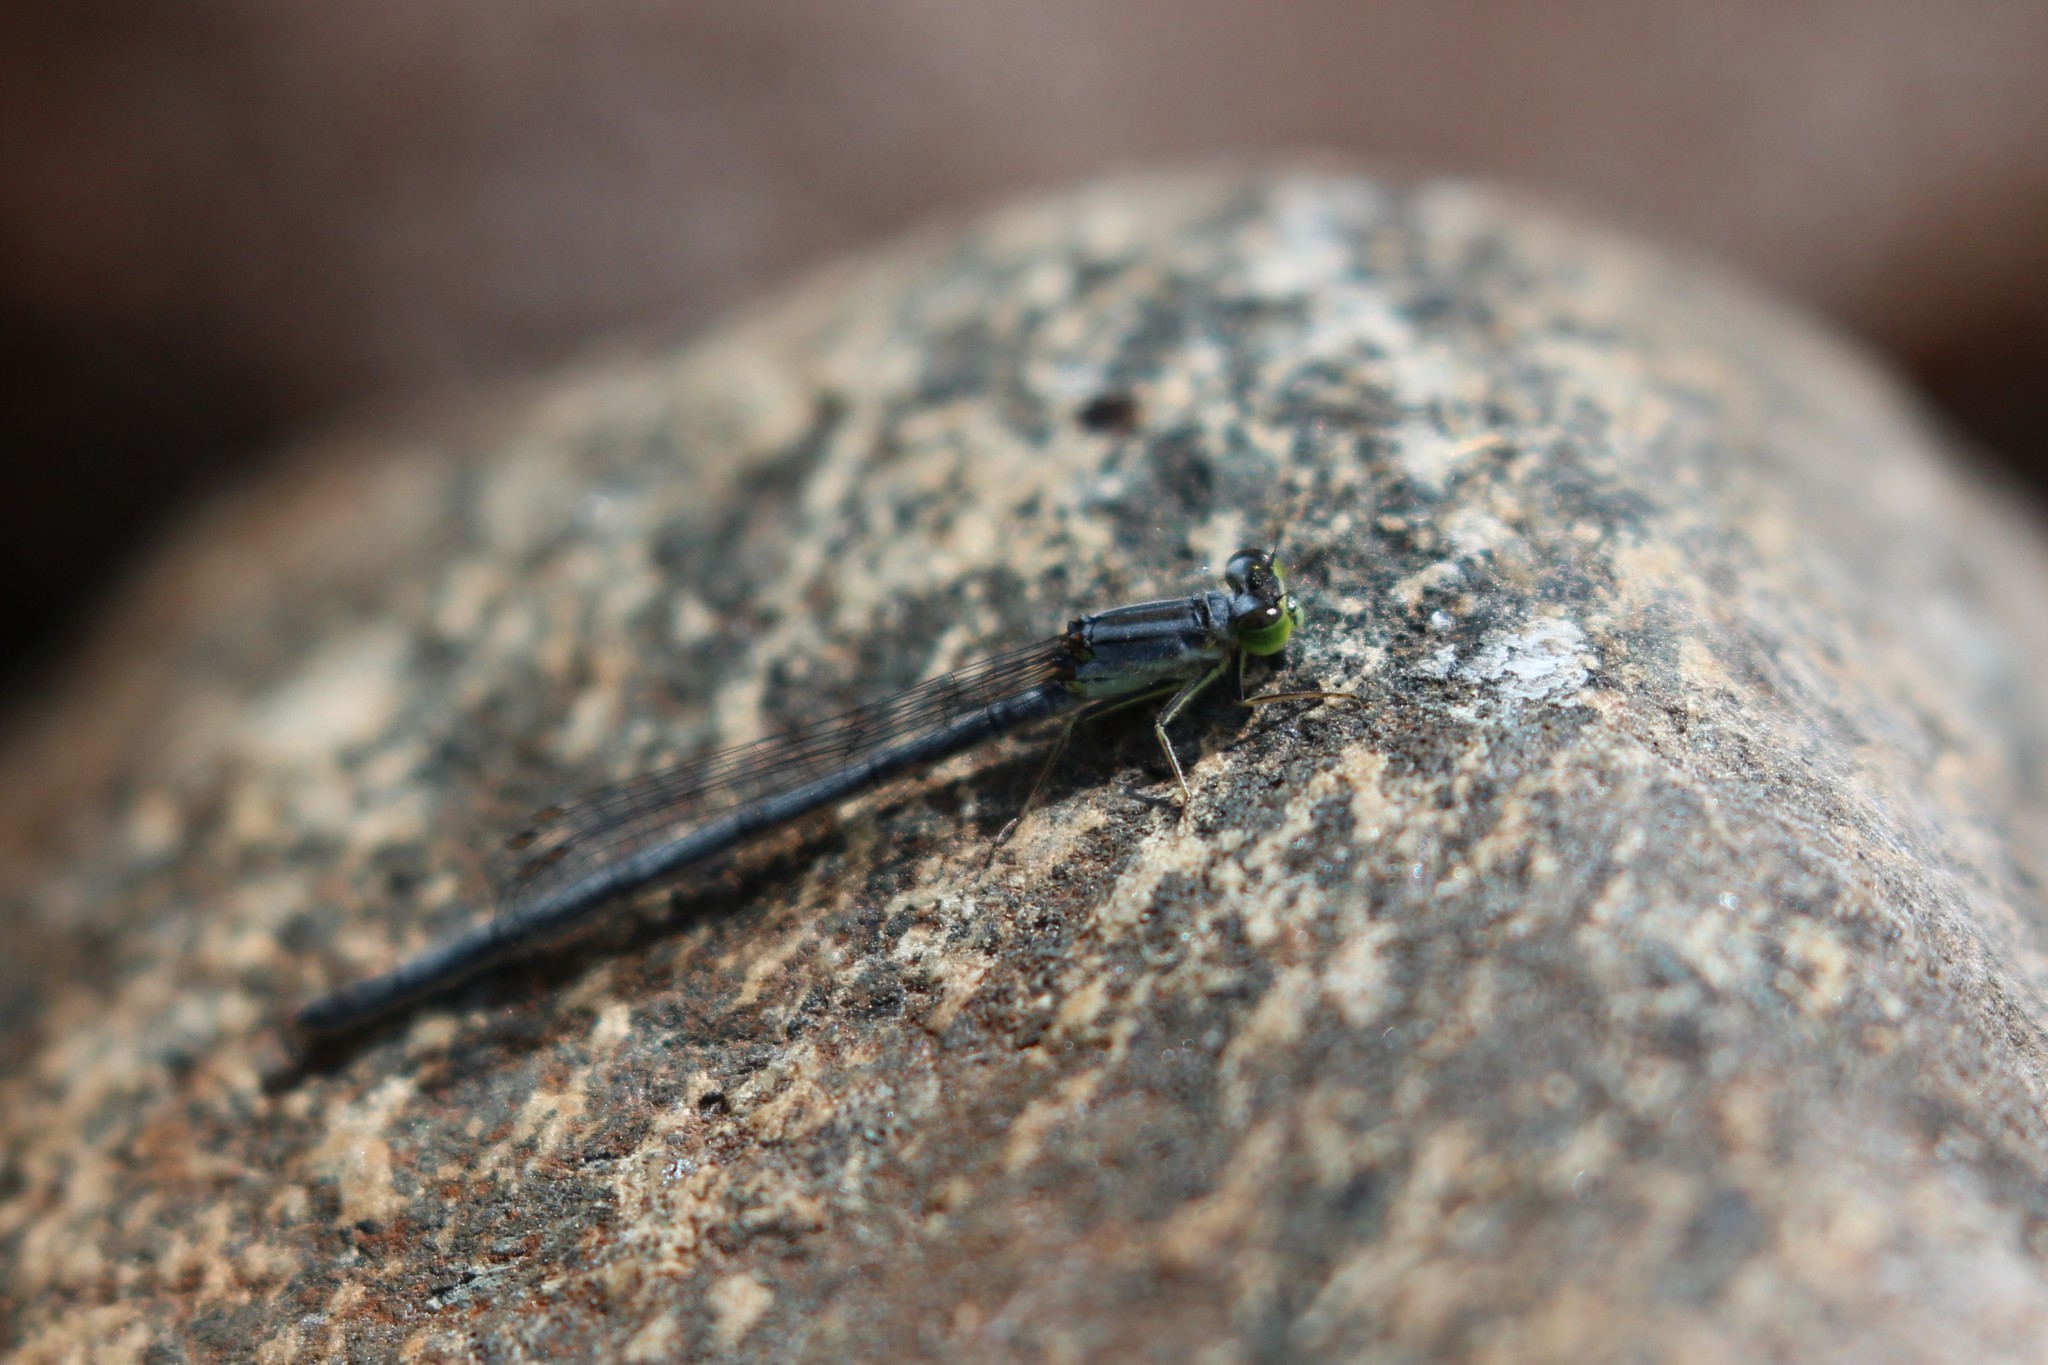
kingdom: Animalia
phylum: Arthropoda
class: Insecta
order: Odonata
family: Coenagrionidae
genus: Ischnura
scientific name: Ischnura verticalis
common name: Eastern forktail
